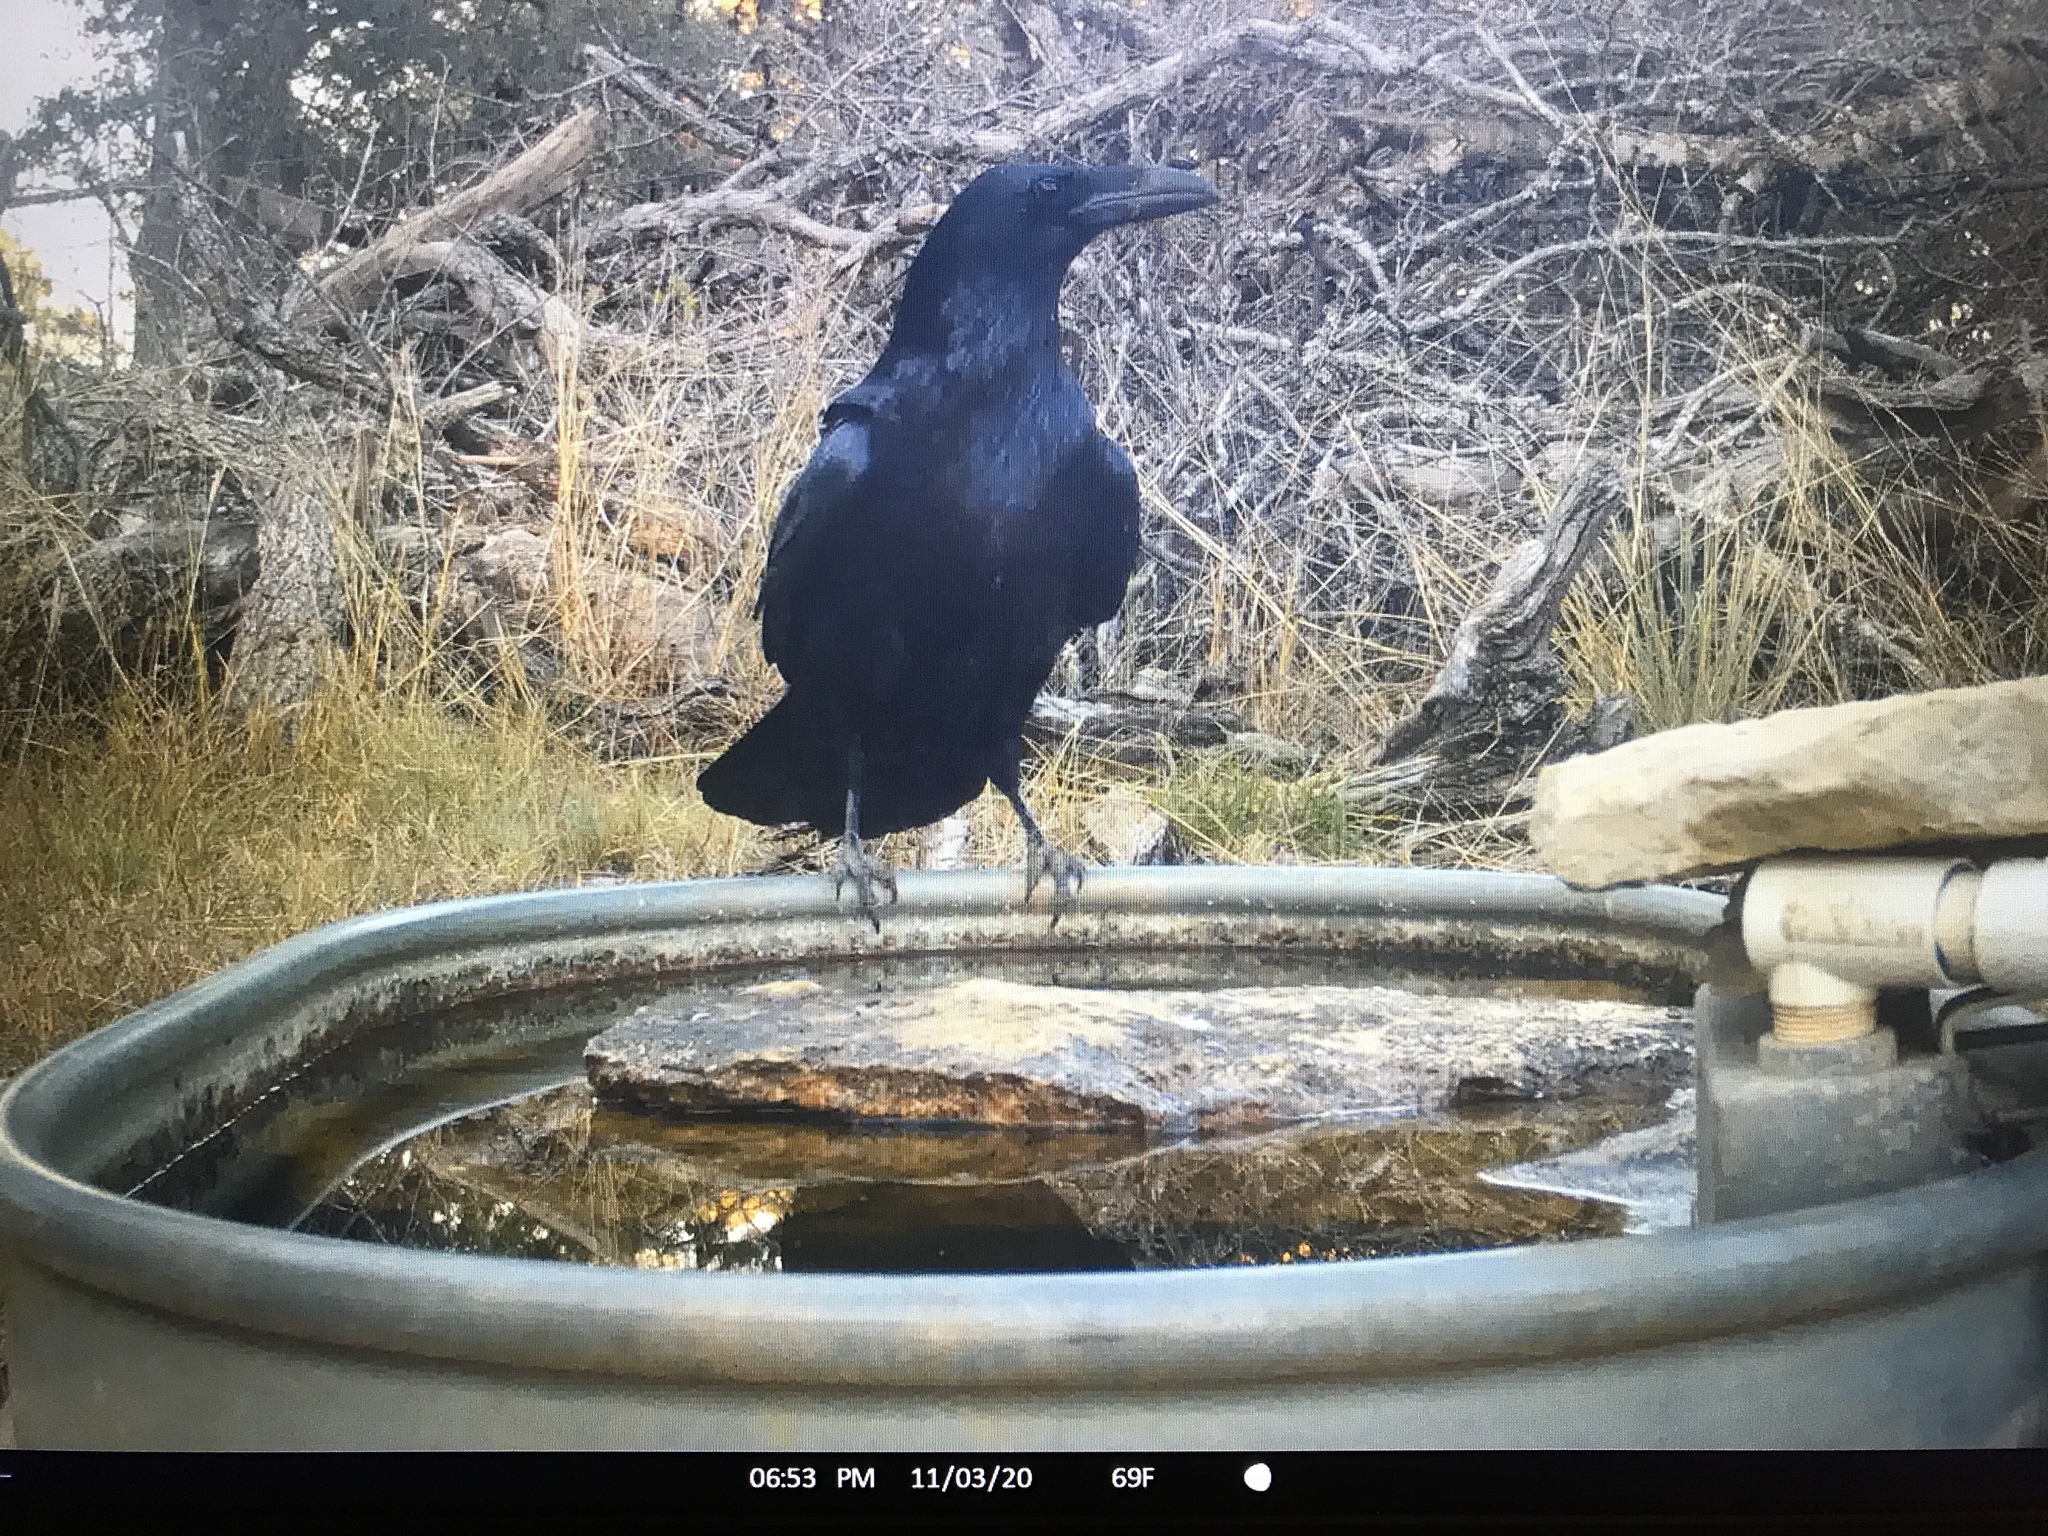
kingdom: Animalia
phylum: Chordata
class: Aves
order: Passeriformes
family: Corvidae
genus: Corvus
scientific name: Corvus corax
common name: Common raven
